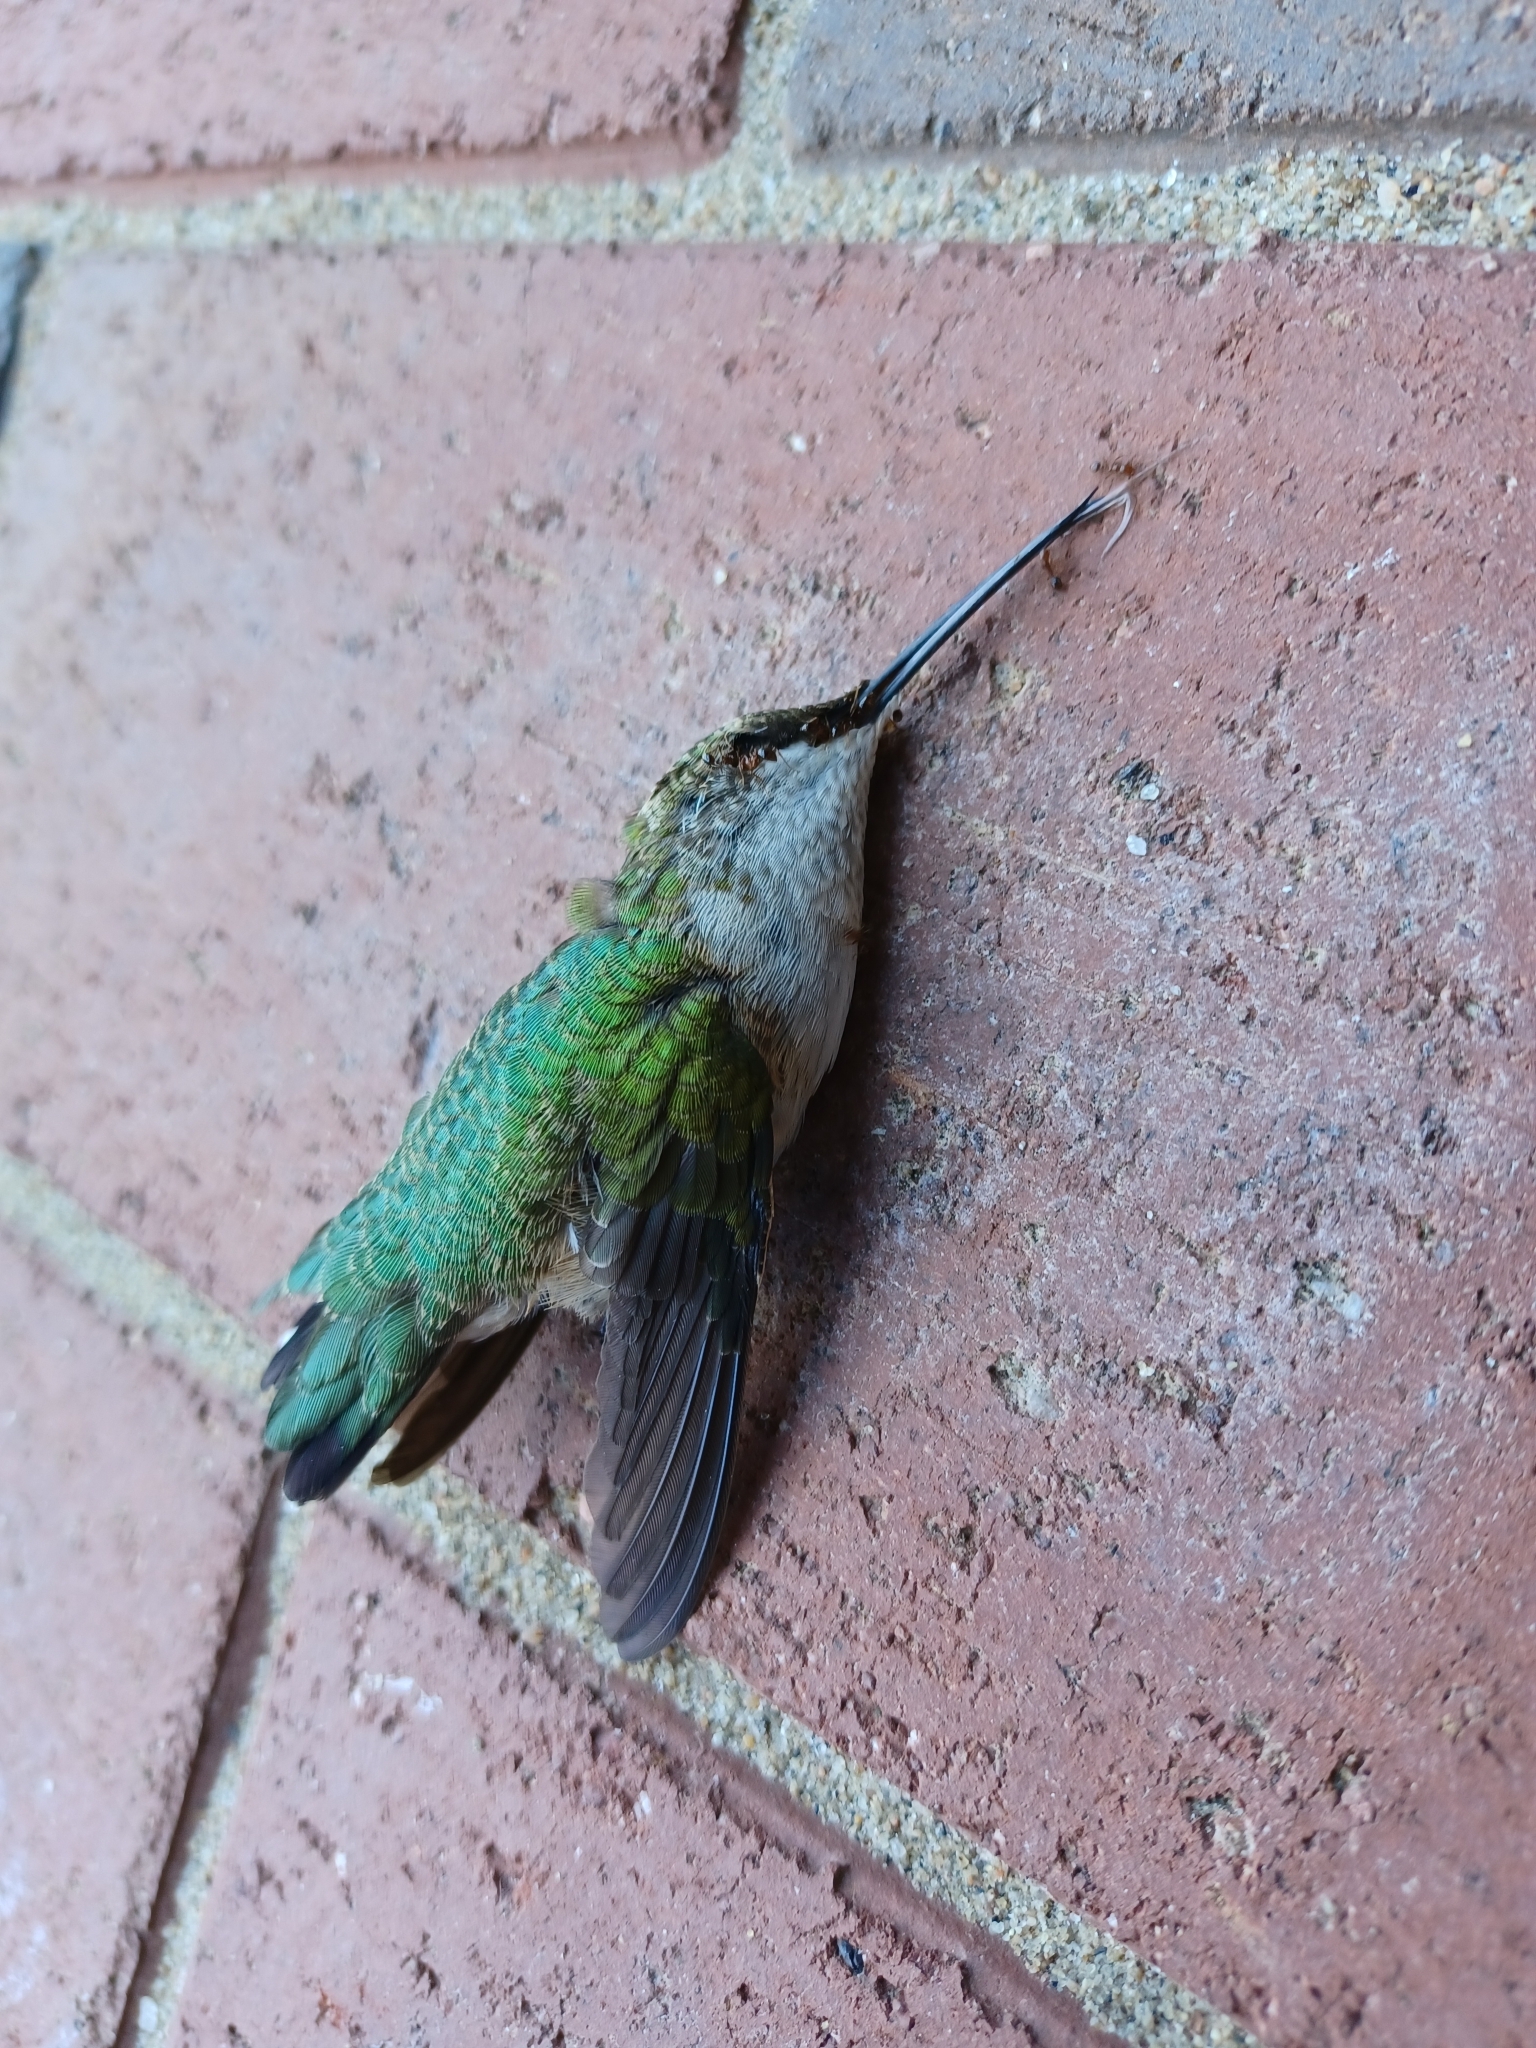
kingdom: Animalia
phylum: Chordata
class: Aves
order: Apodiformes
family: Trochilidae
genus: Archilochus
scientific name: Archilochus colubris
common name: Ruby-throated hummingbird
